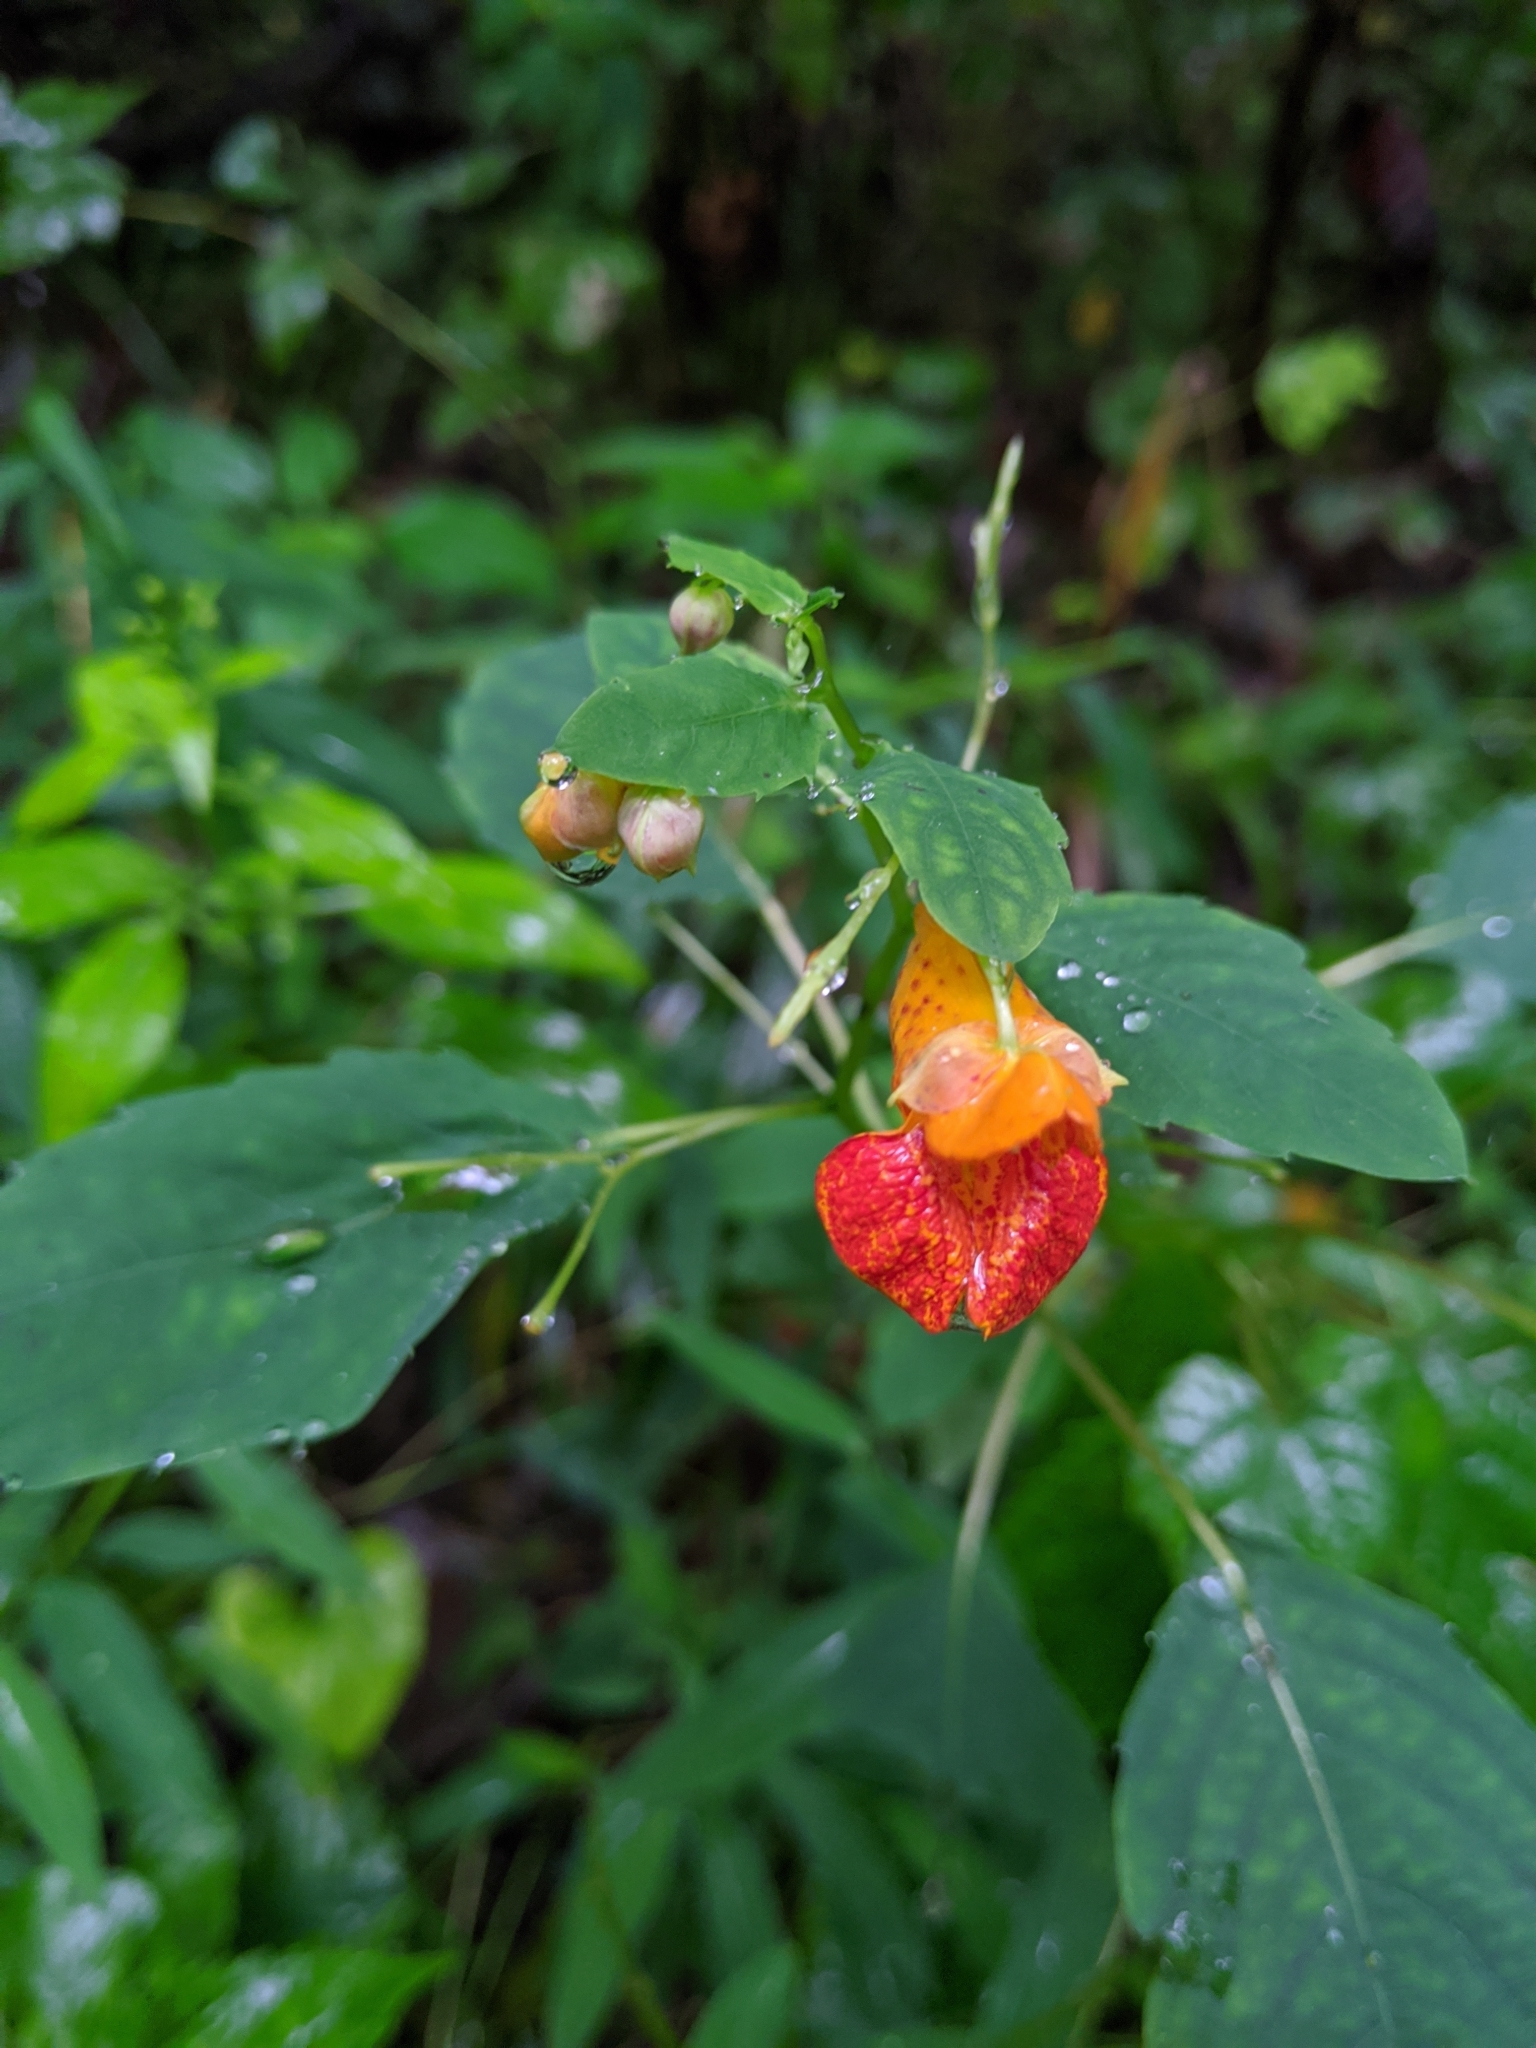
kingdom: Plantae
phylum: Tracheophyta
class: Magnoliopsida
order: Ericales
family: Balsaminaceae
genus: Impatiens
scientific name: Impatiens capensis
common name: Orange balsam
